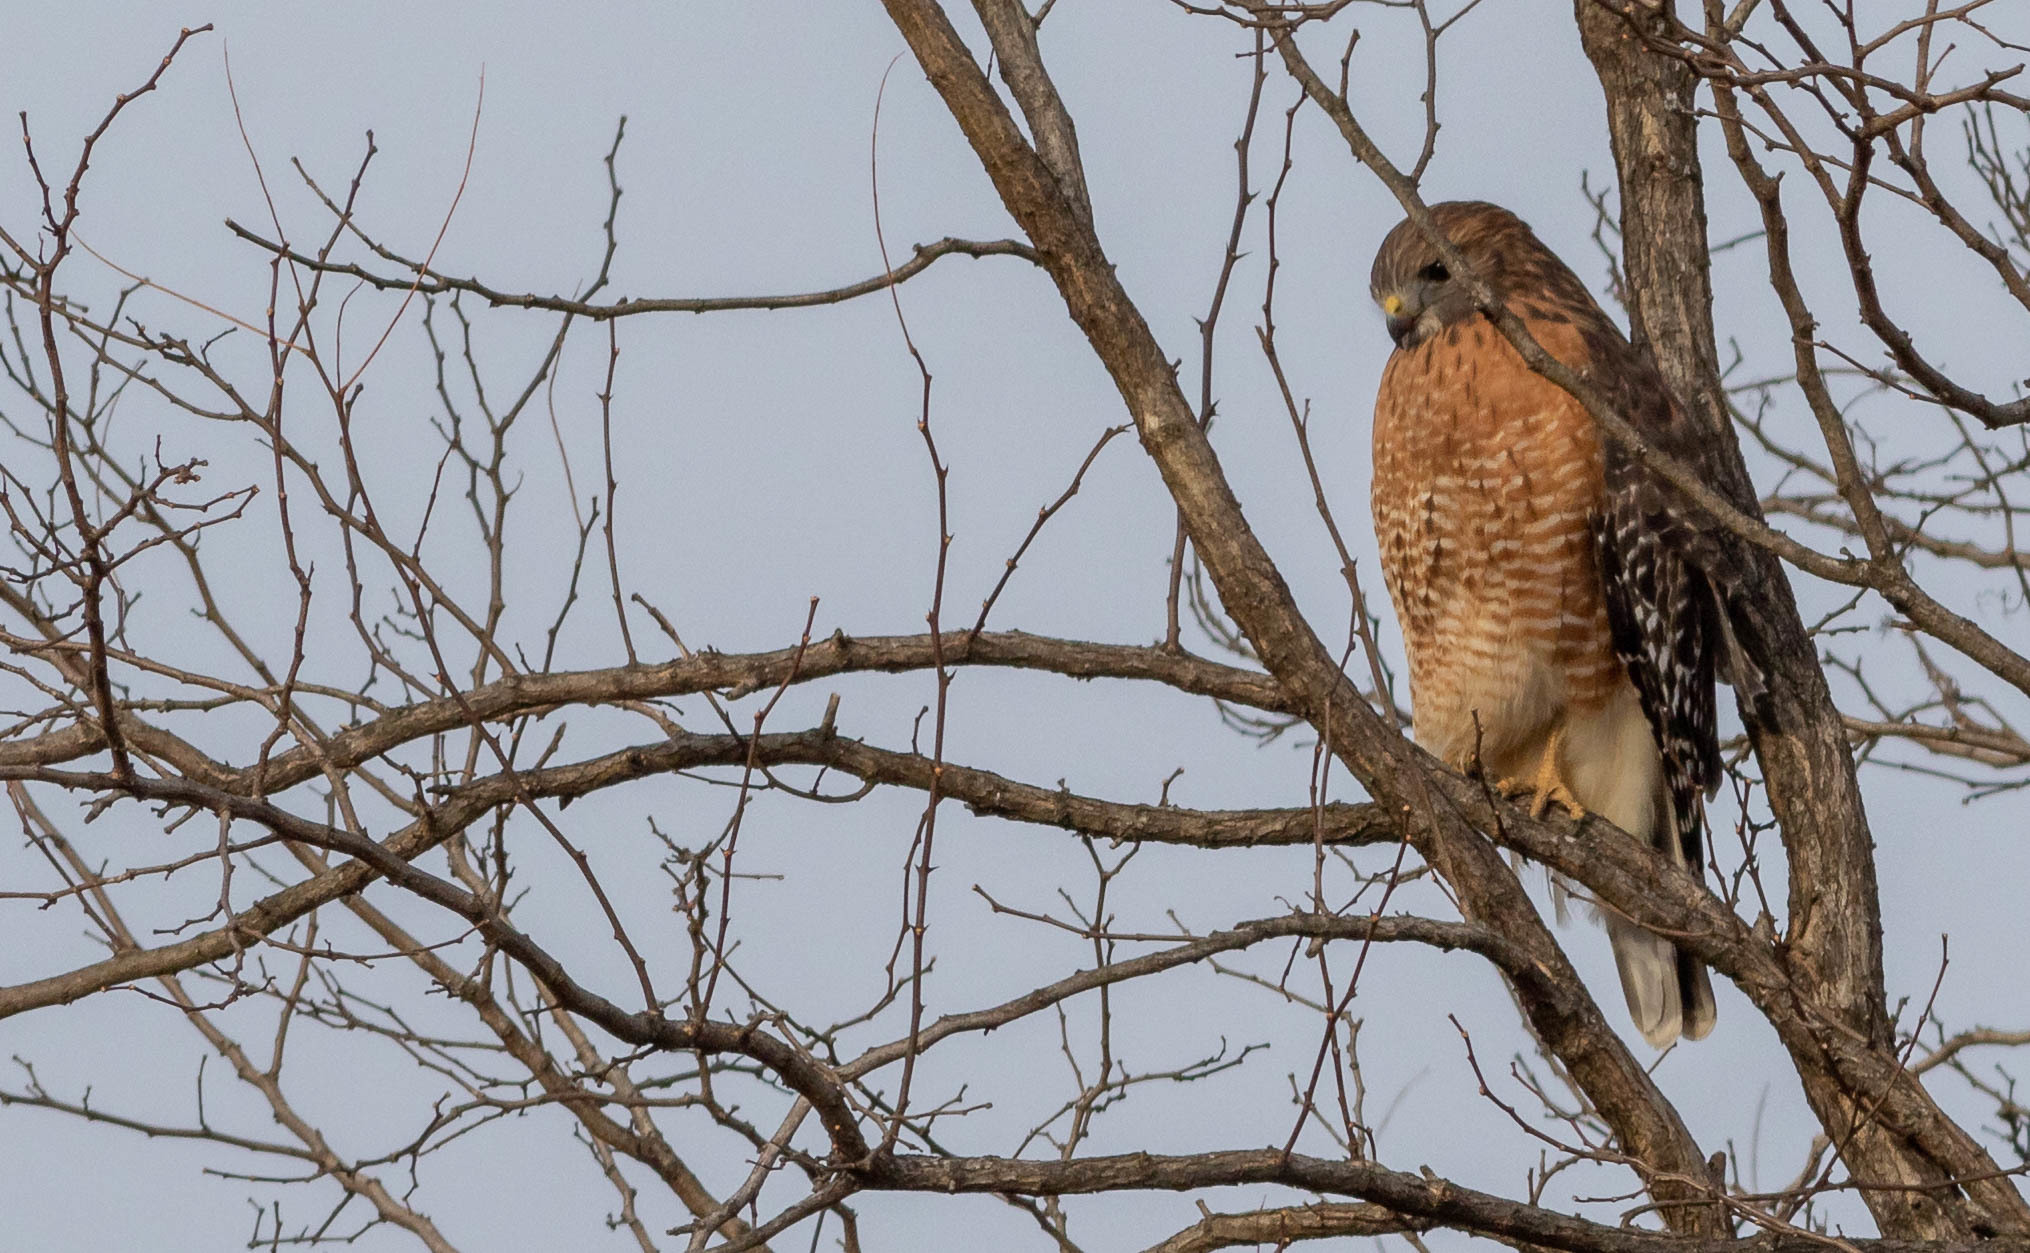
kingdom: Animalia
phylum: Chordata
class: Aves
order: Accipitriformes
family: Accipitridae
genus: Buteo
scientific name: Buteo lineatus
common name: Red-shouldered hawk
